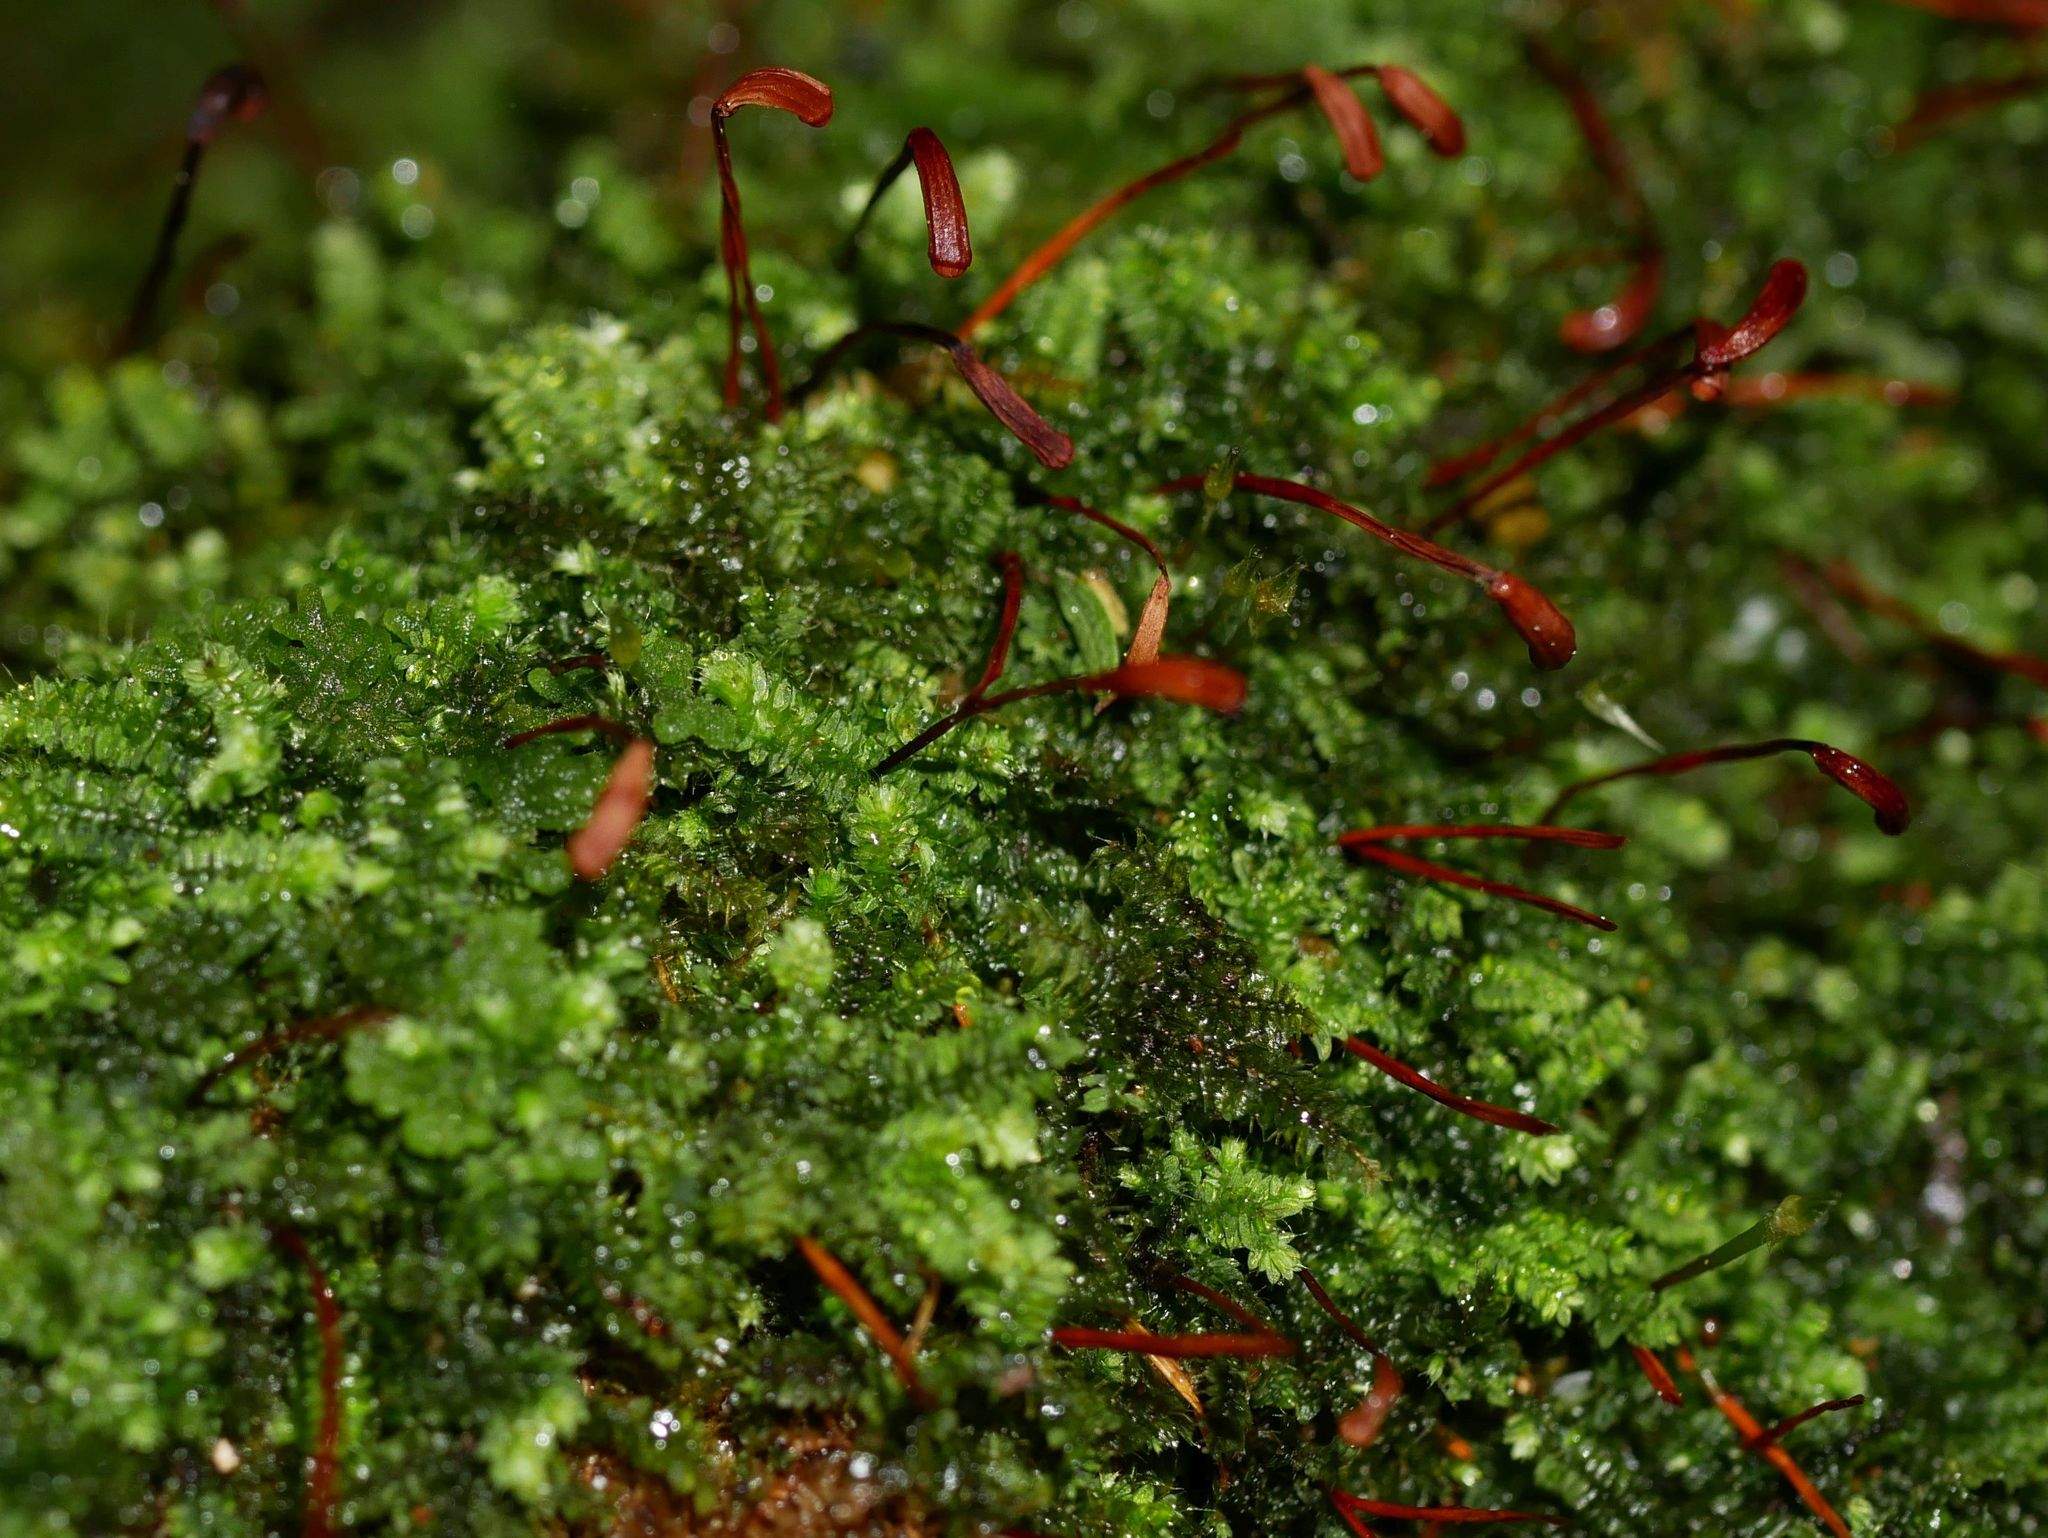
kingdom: Plantae
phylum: Bryophyta
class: Bryopsida
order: Hypnodendrales
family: Racopilaceae
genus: Racopilum
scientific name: Racopilum strumiferum
